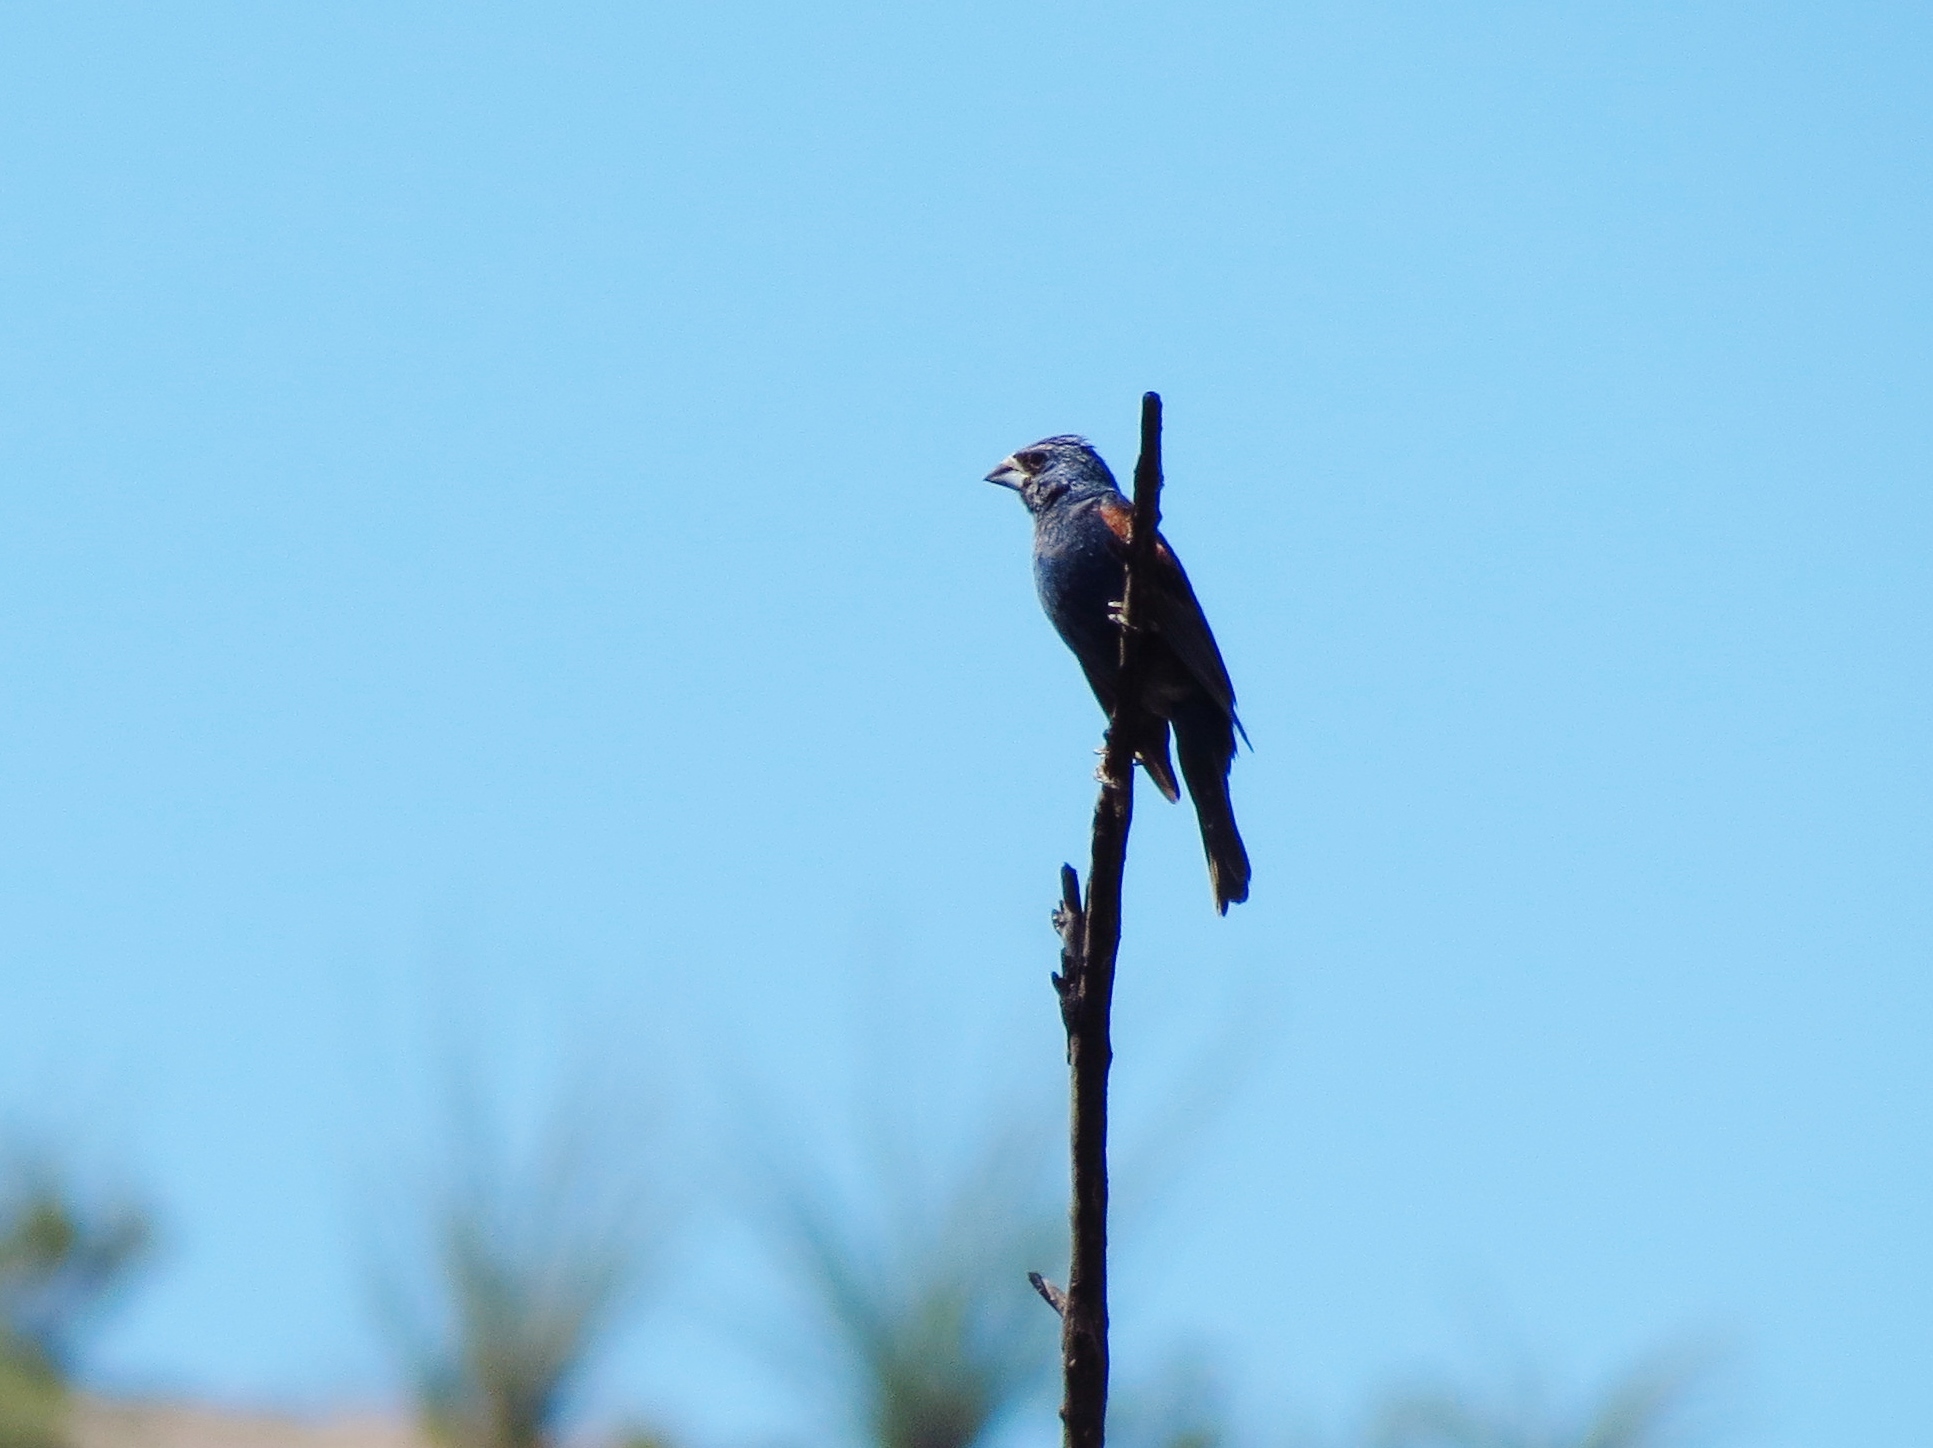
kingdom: Animalia
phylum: Chordata
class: Aves
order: Passeriformes
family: Cardinalidae
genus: Passerina
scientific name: Passerina caerulea
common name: Blue grosbeak
